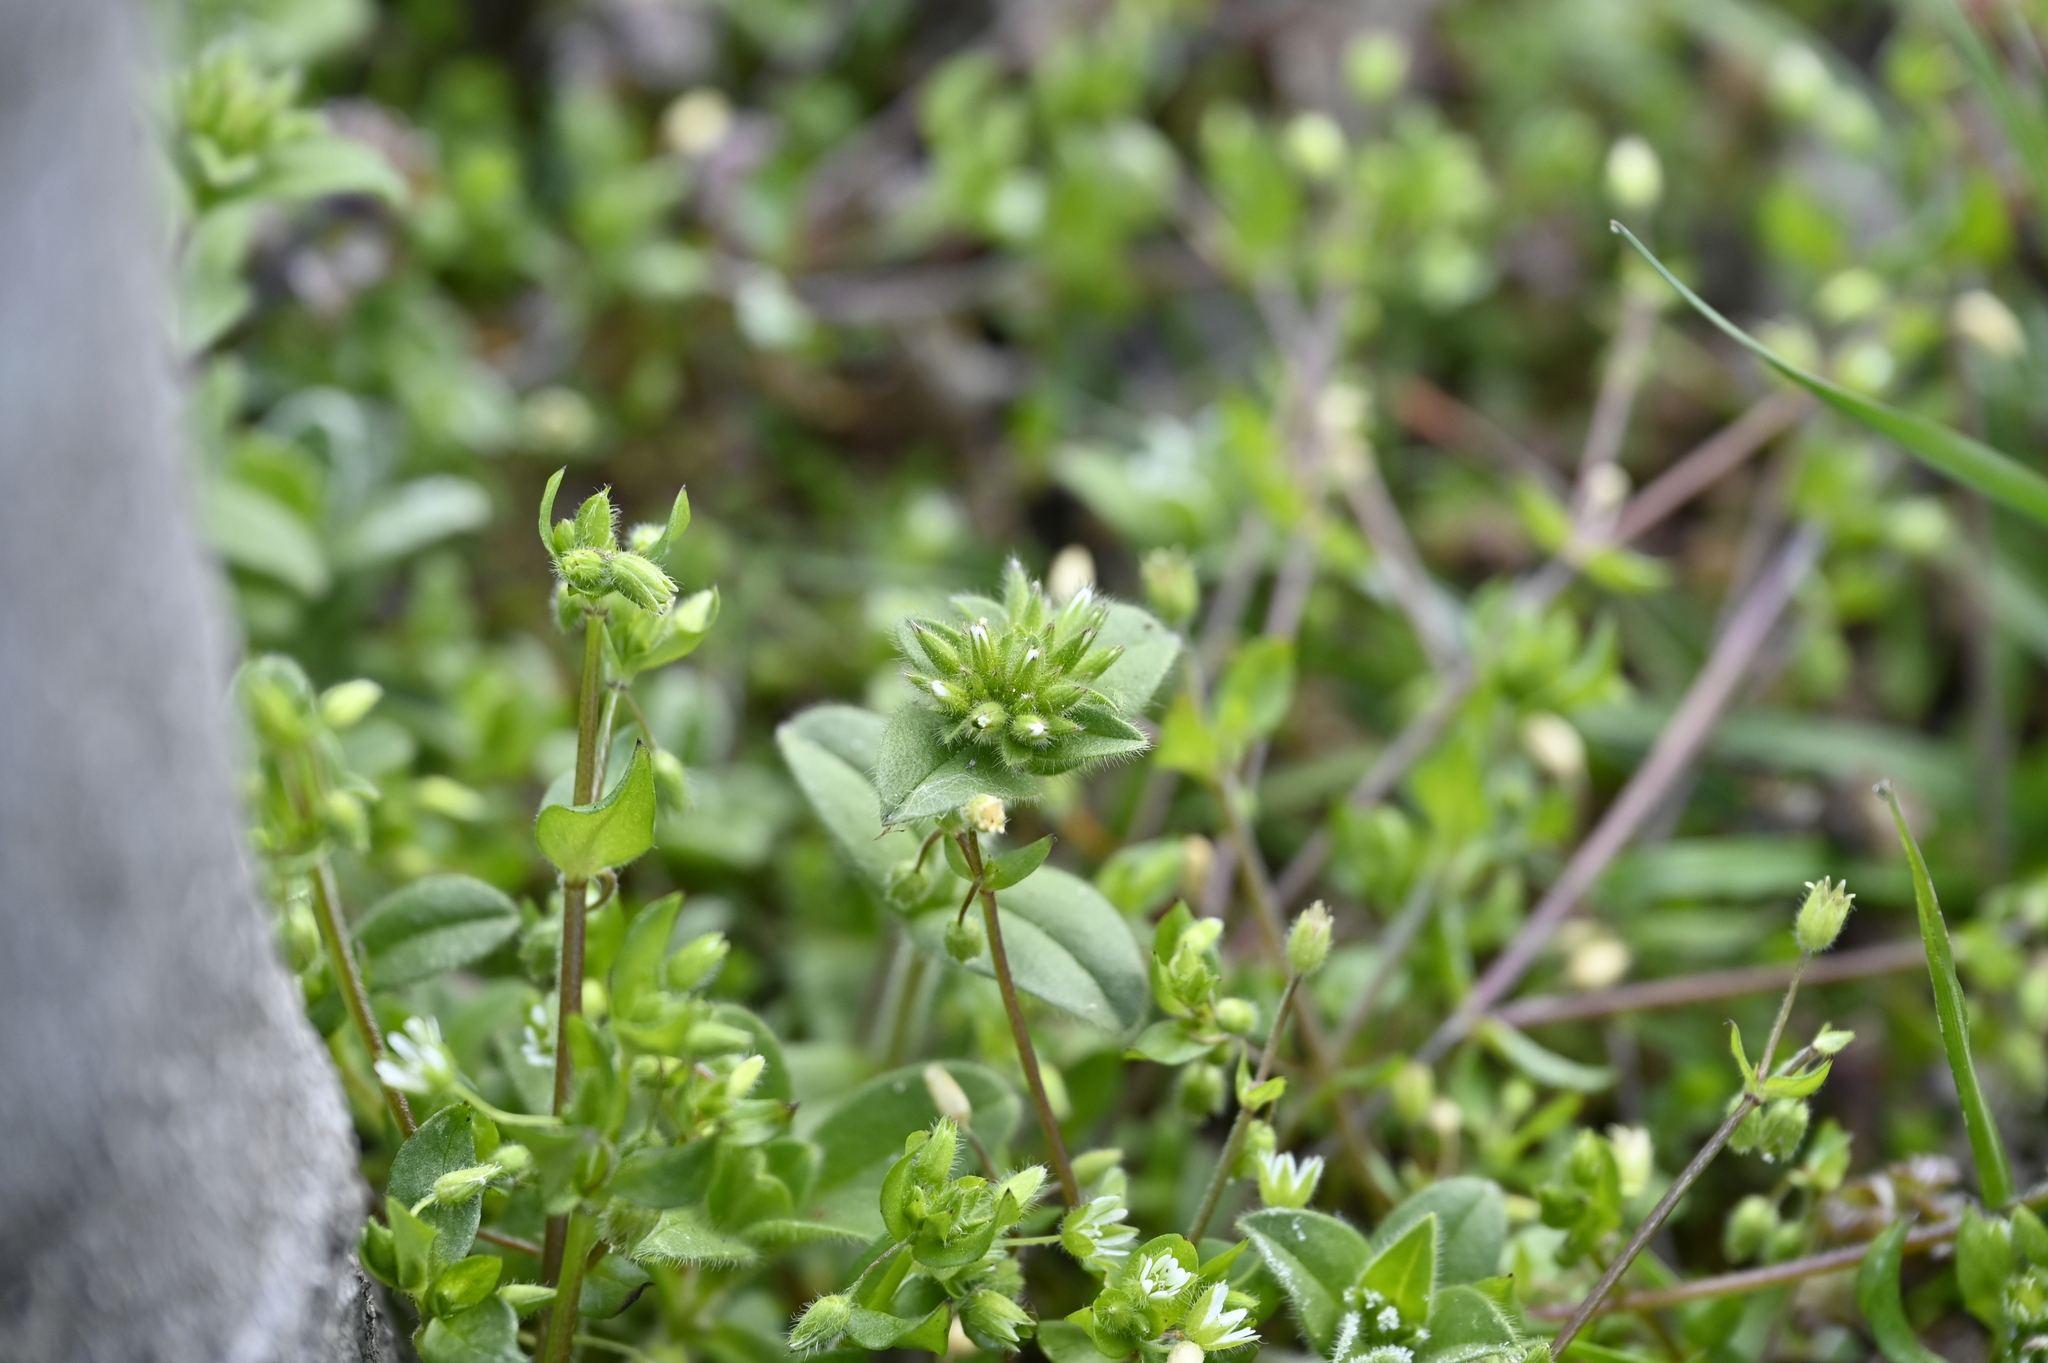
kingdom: Plantae
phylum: Tracheophyta
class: Magnoliopsida
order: Caryophyllales
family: Caryophyllaceae
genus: Cerastium
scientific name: Cerastium glomeratum
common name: Sticky chickweed
